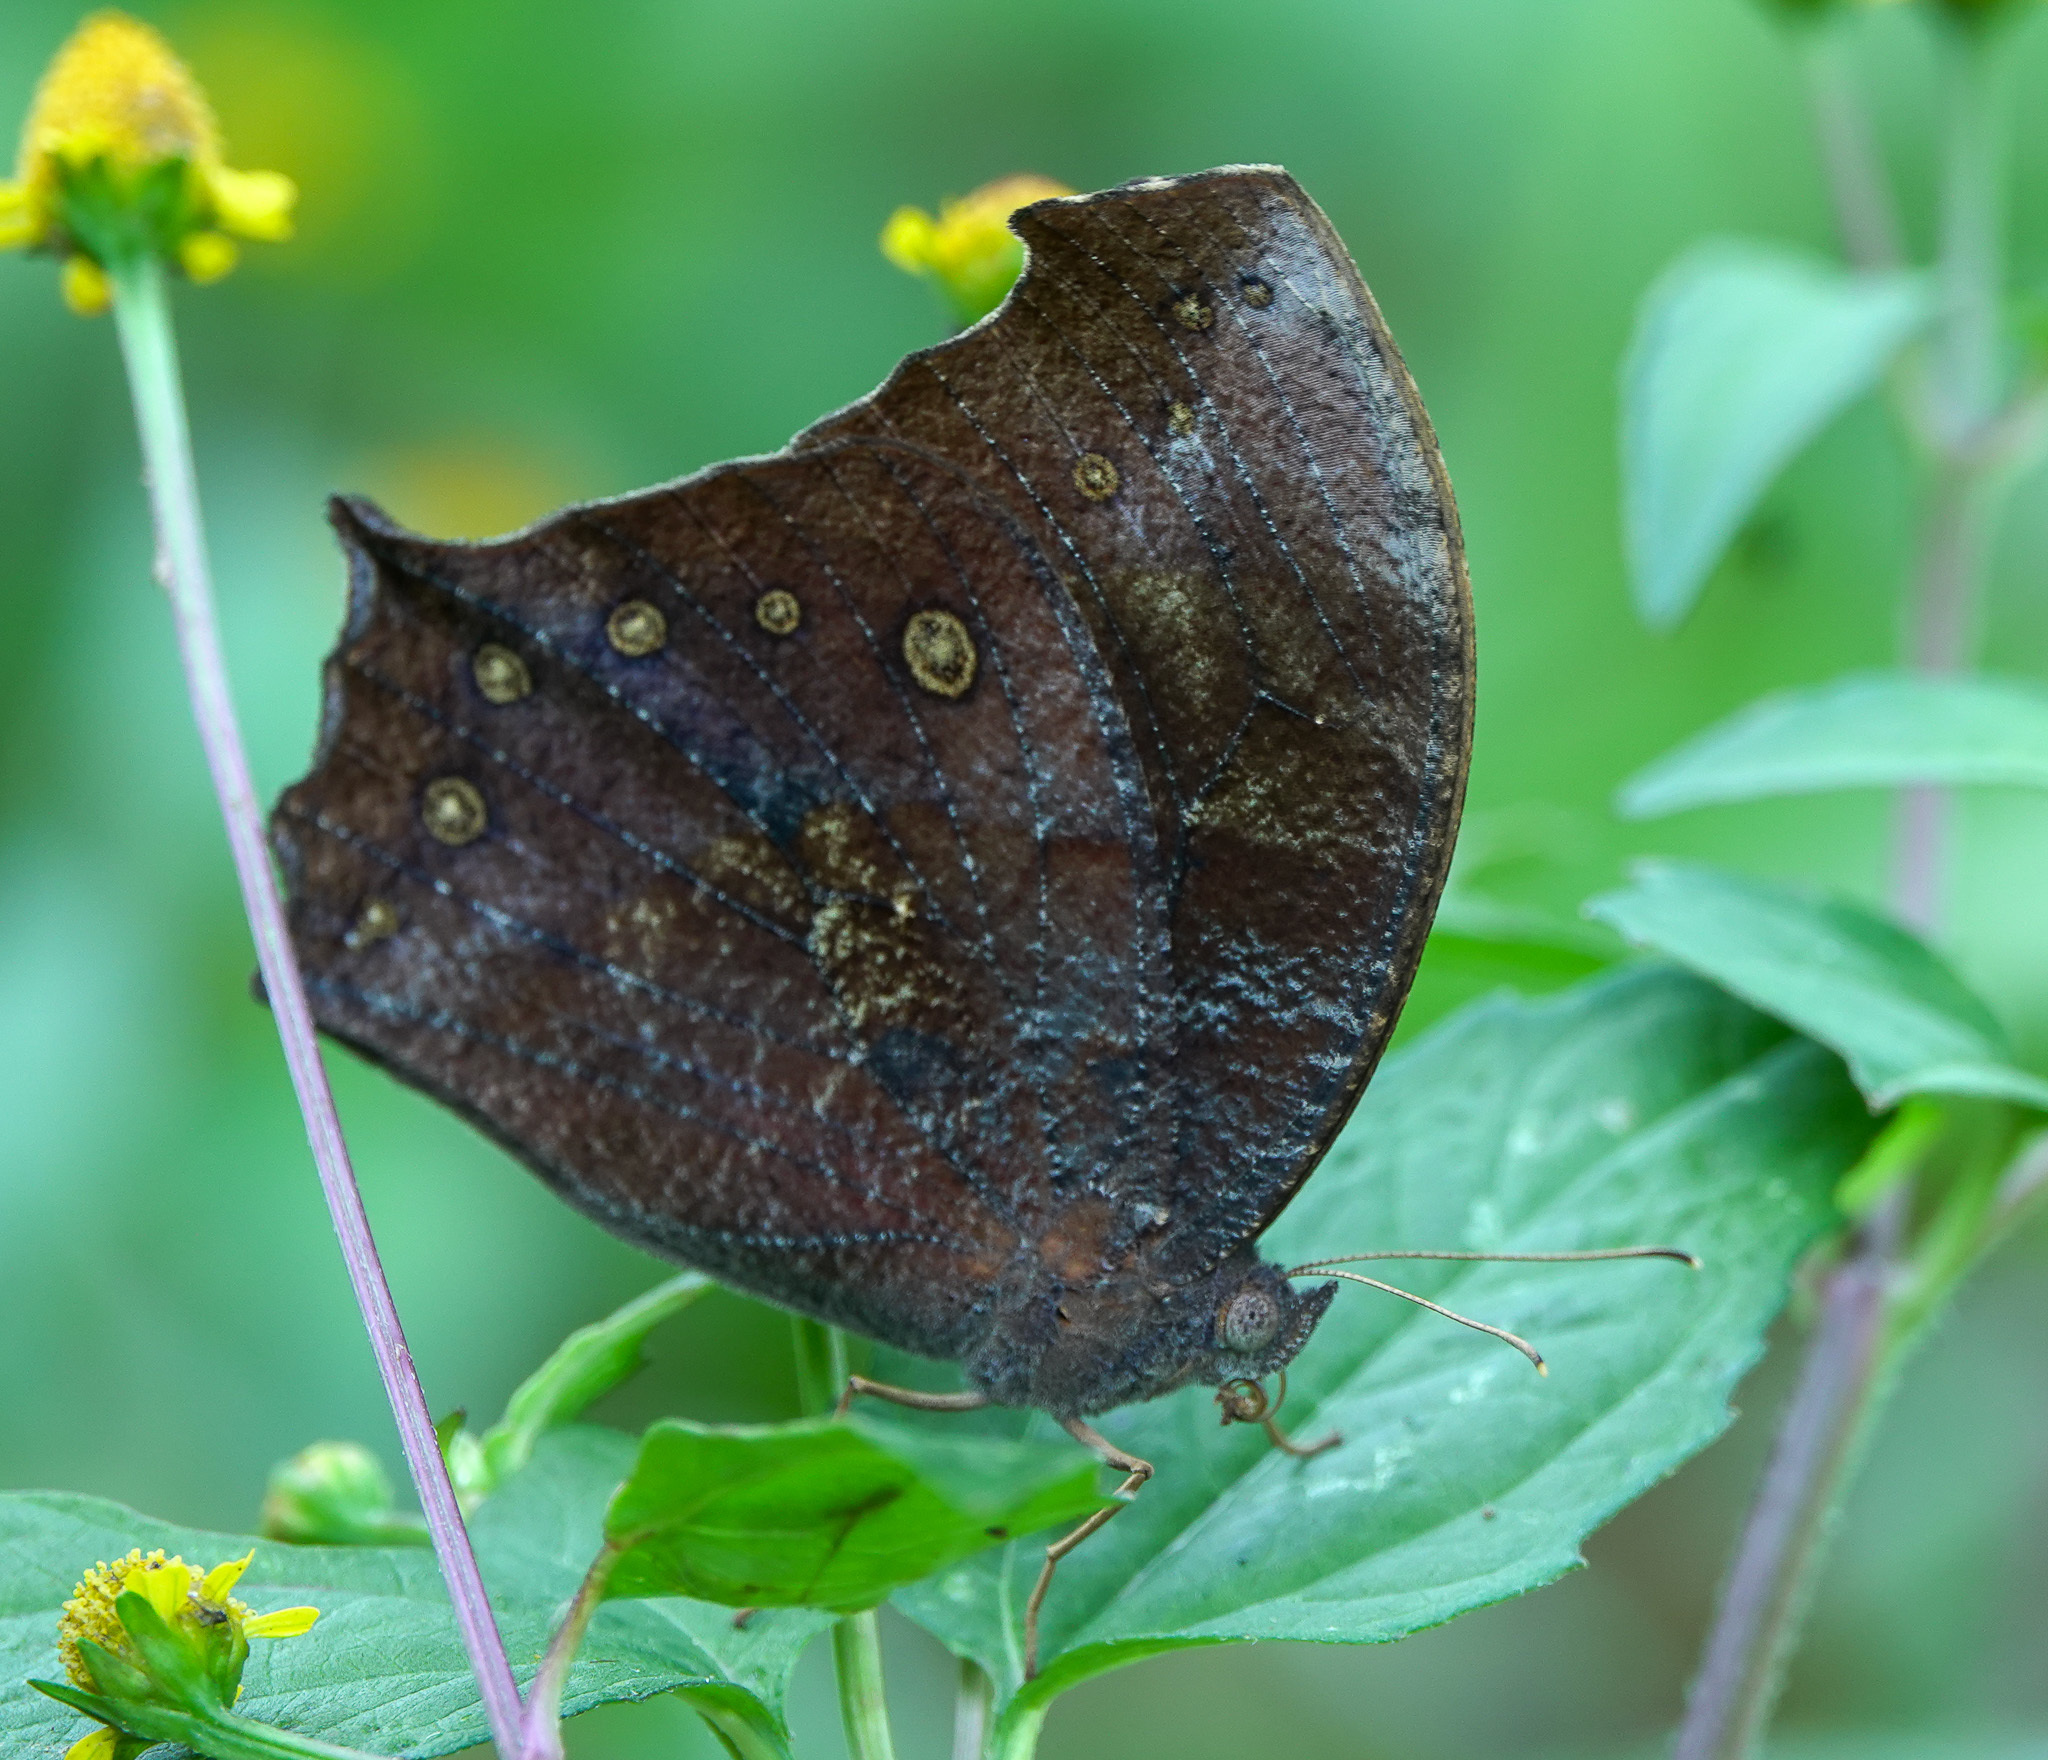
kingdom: Animalia
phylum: Arthropoda
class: Insecta
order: Lepidoptera
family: Nymphalidae
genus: Melanitis
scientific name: Melanitis phedima
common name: Dark evening brown
